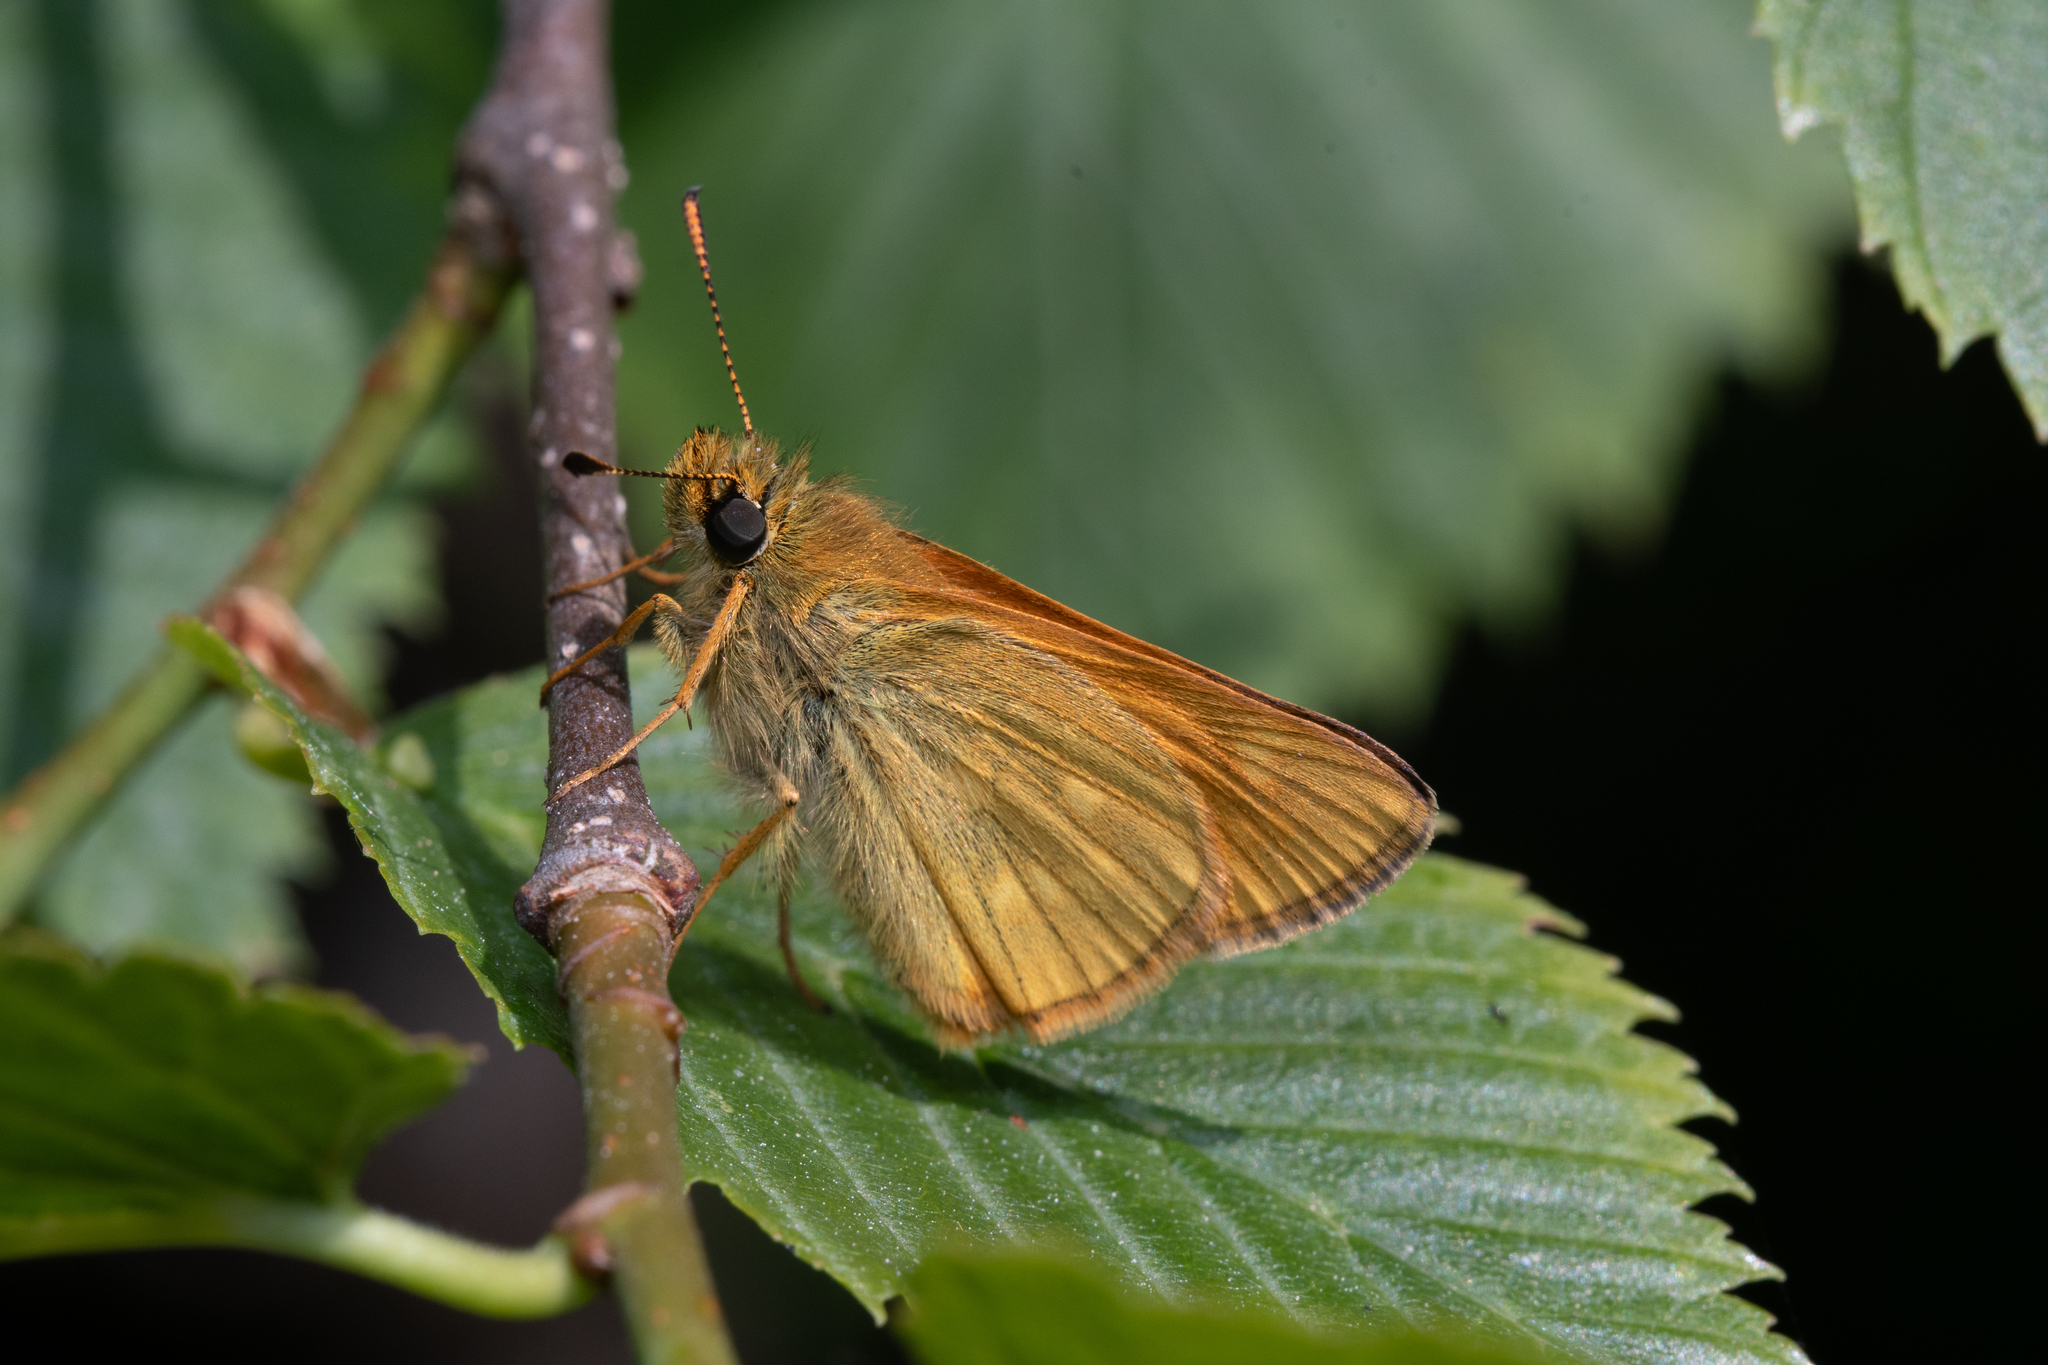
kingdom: Animalia
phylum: Arthropoda
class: Insecta
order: Lepidoptera
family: Hesperiidae
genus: Ochlodes
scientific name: Ochlodes venata
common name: Large skipper
